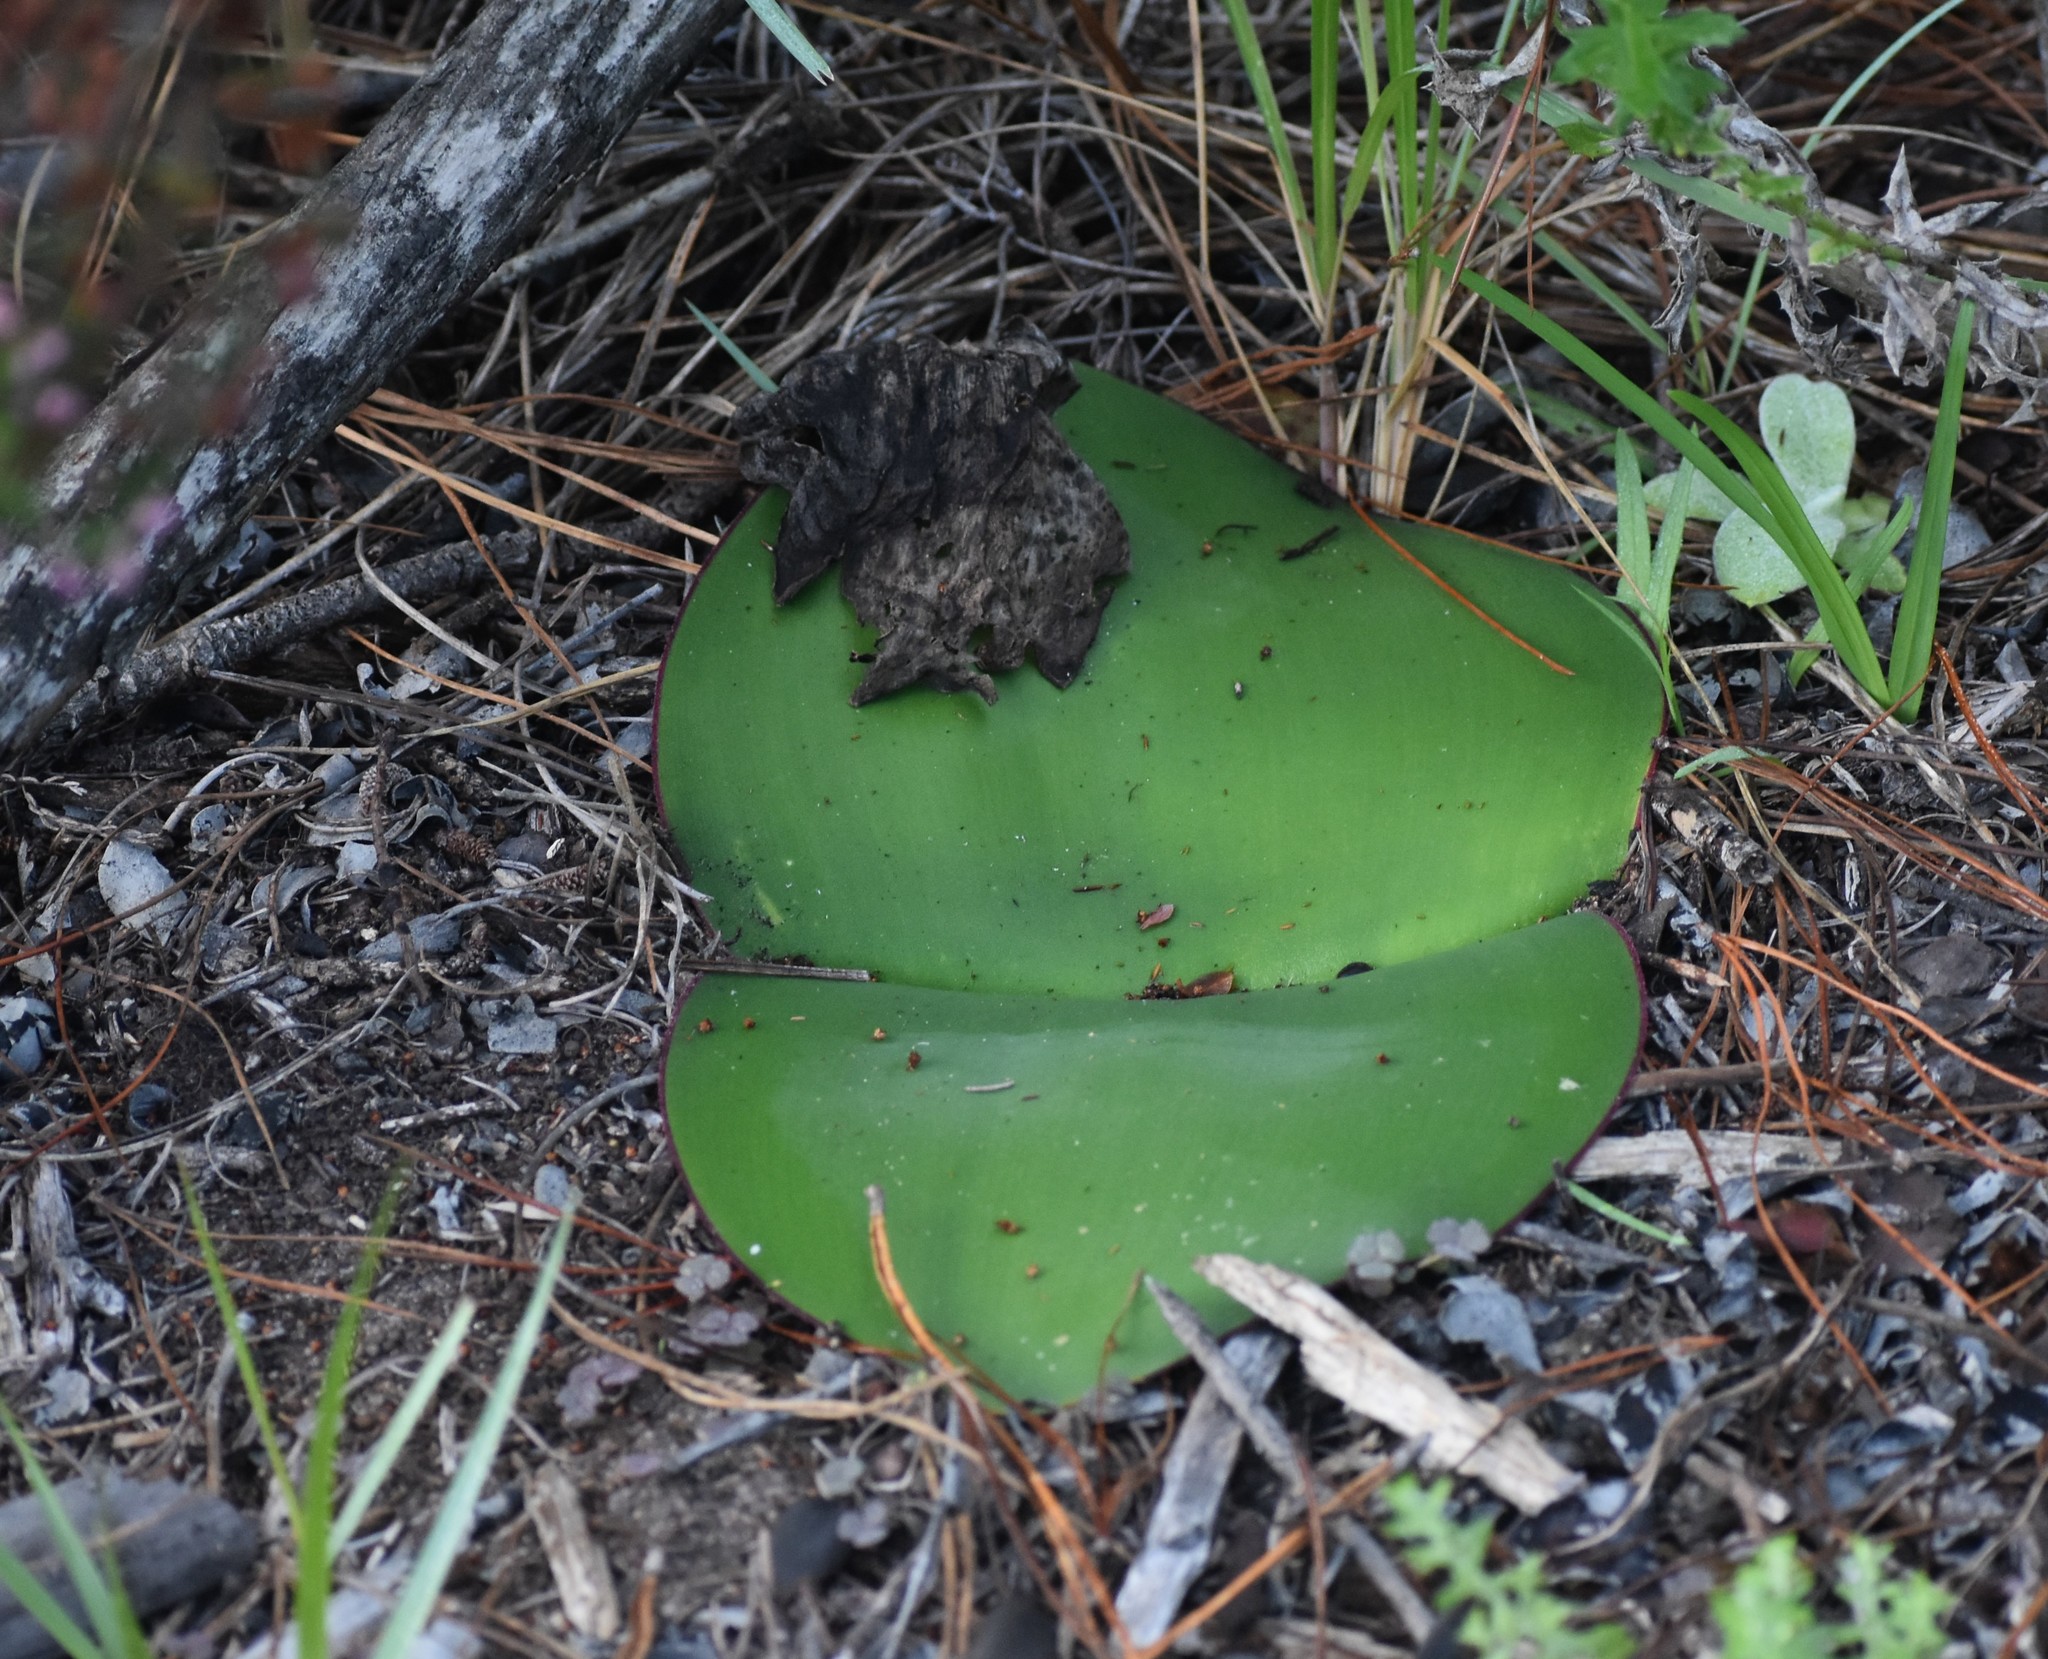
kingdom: Plantae
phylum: Tracheophyta
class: Liliopsida
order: Asparagales
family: Amaryllidaceae
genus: Haemanthus
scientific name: Haemanthus sanguineus
